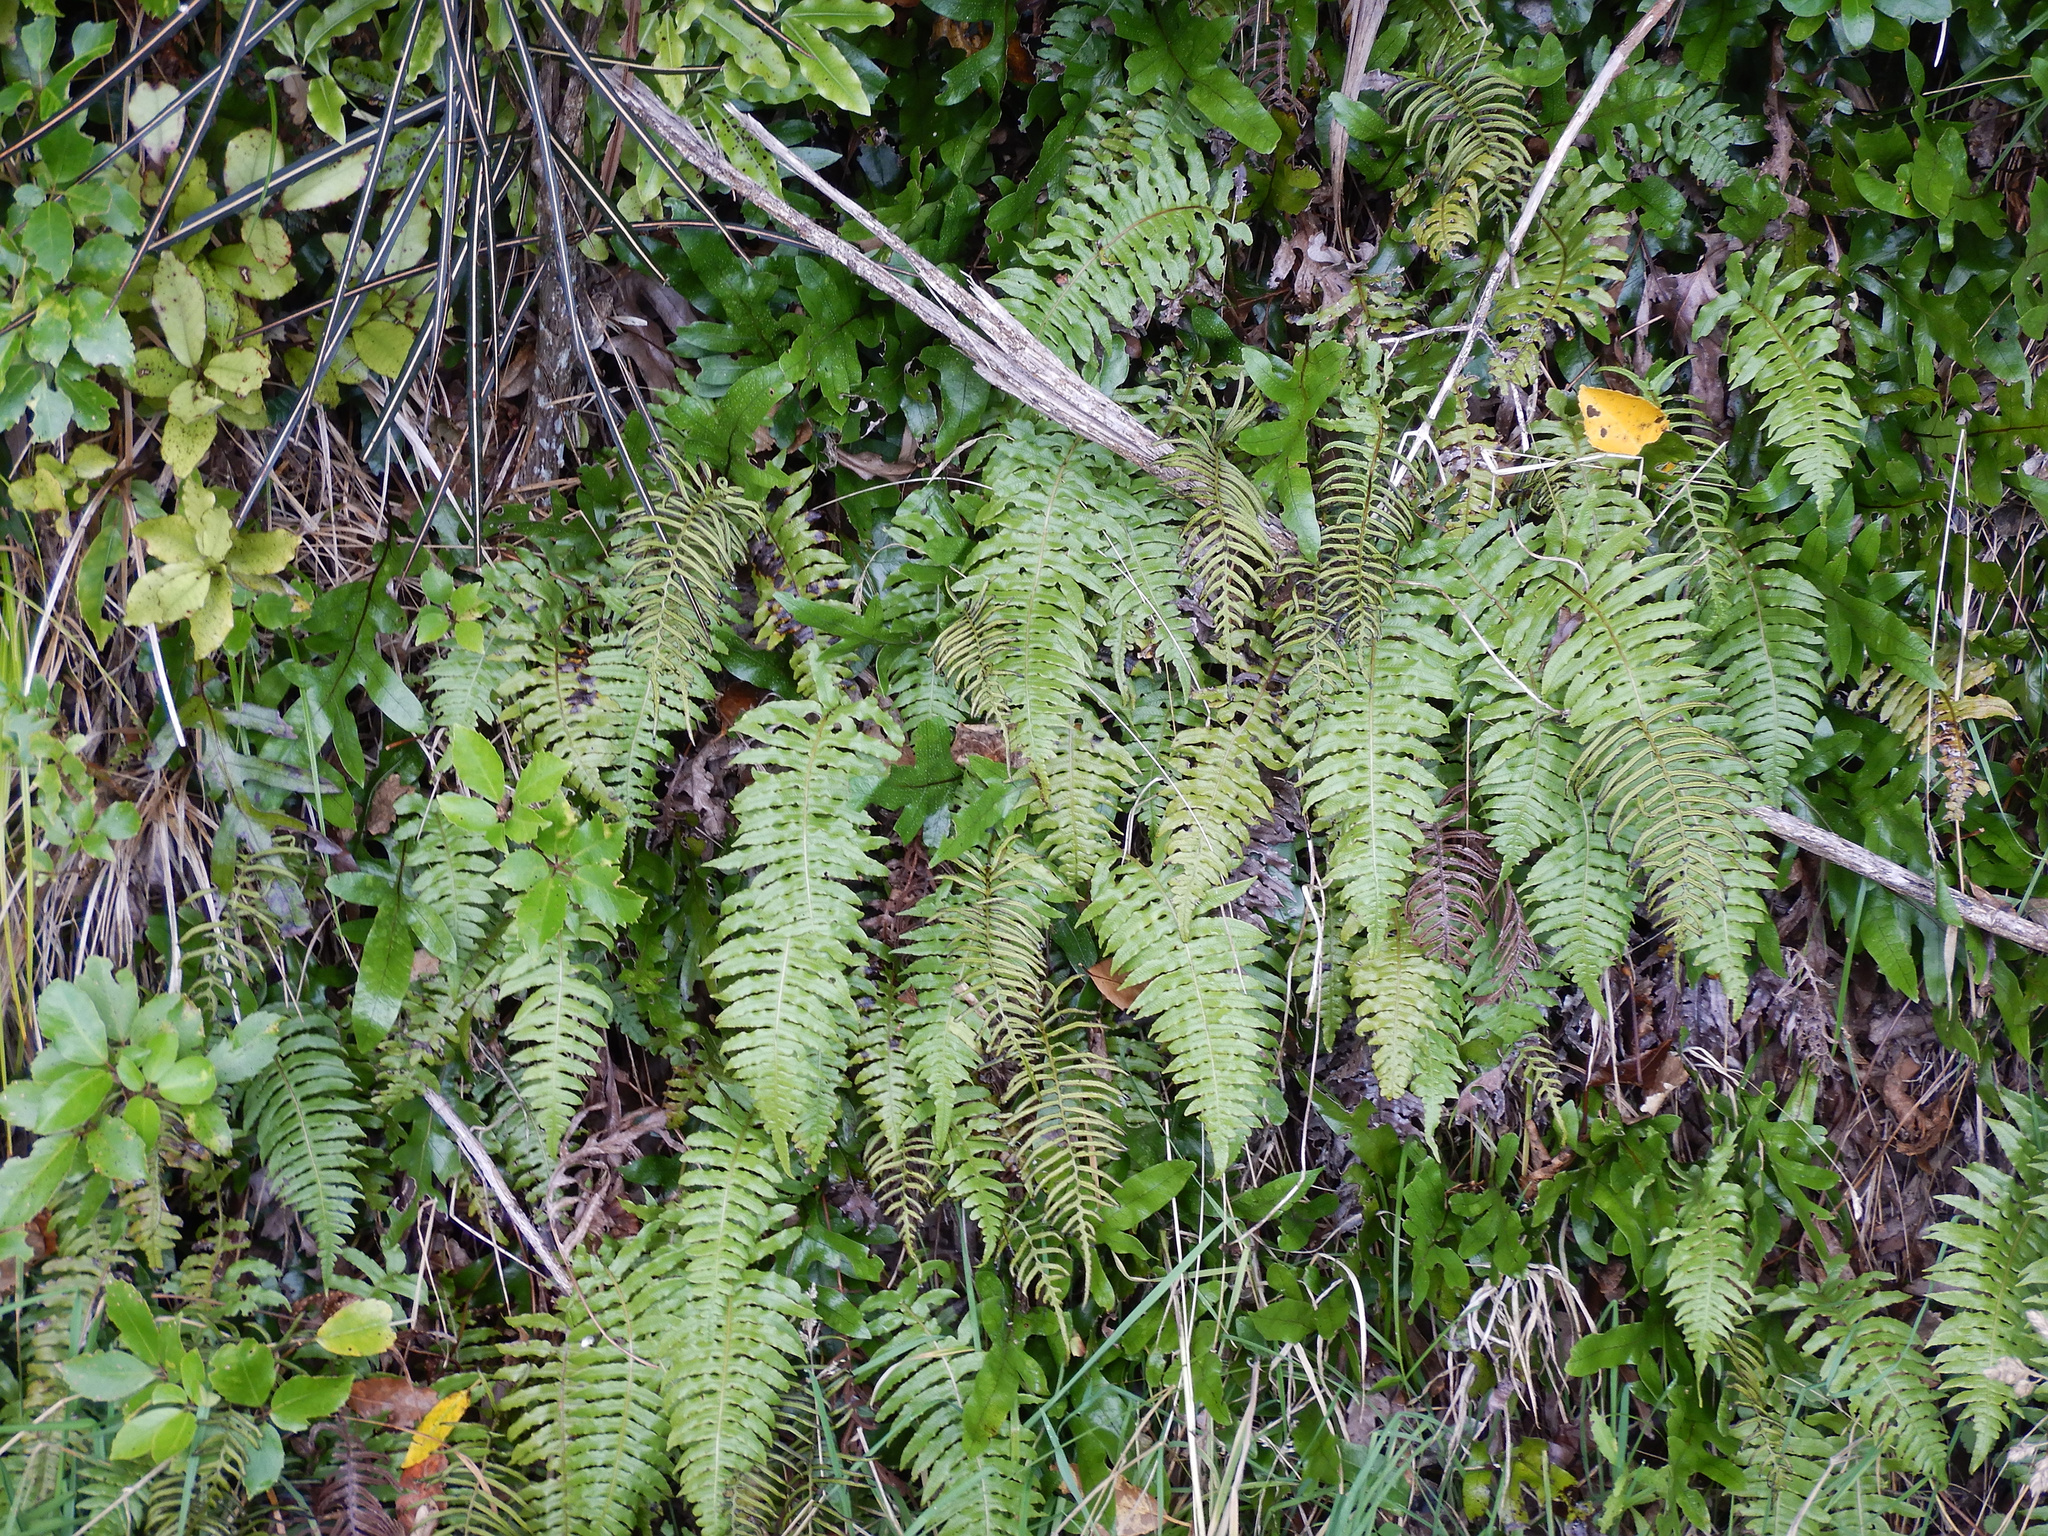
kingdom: Plantae
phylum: Tracheophyta
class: Polypodiopsida
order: Polypodiales
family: Blechnaceae
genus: Cranfillia
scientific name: Cranfillia deltoides
